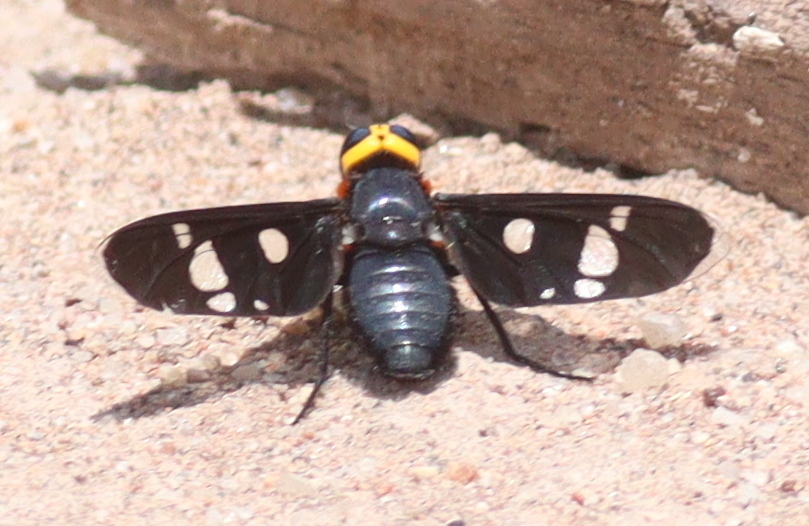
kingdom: Animalia
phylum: Arthropoda
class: Insecta
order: Diptera
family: Bombyliidae
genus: Hyperalonia
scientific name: Hyperalonia morio
